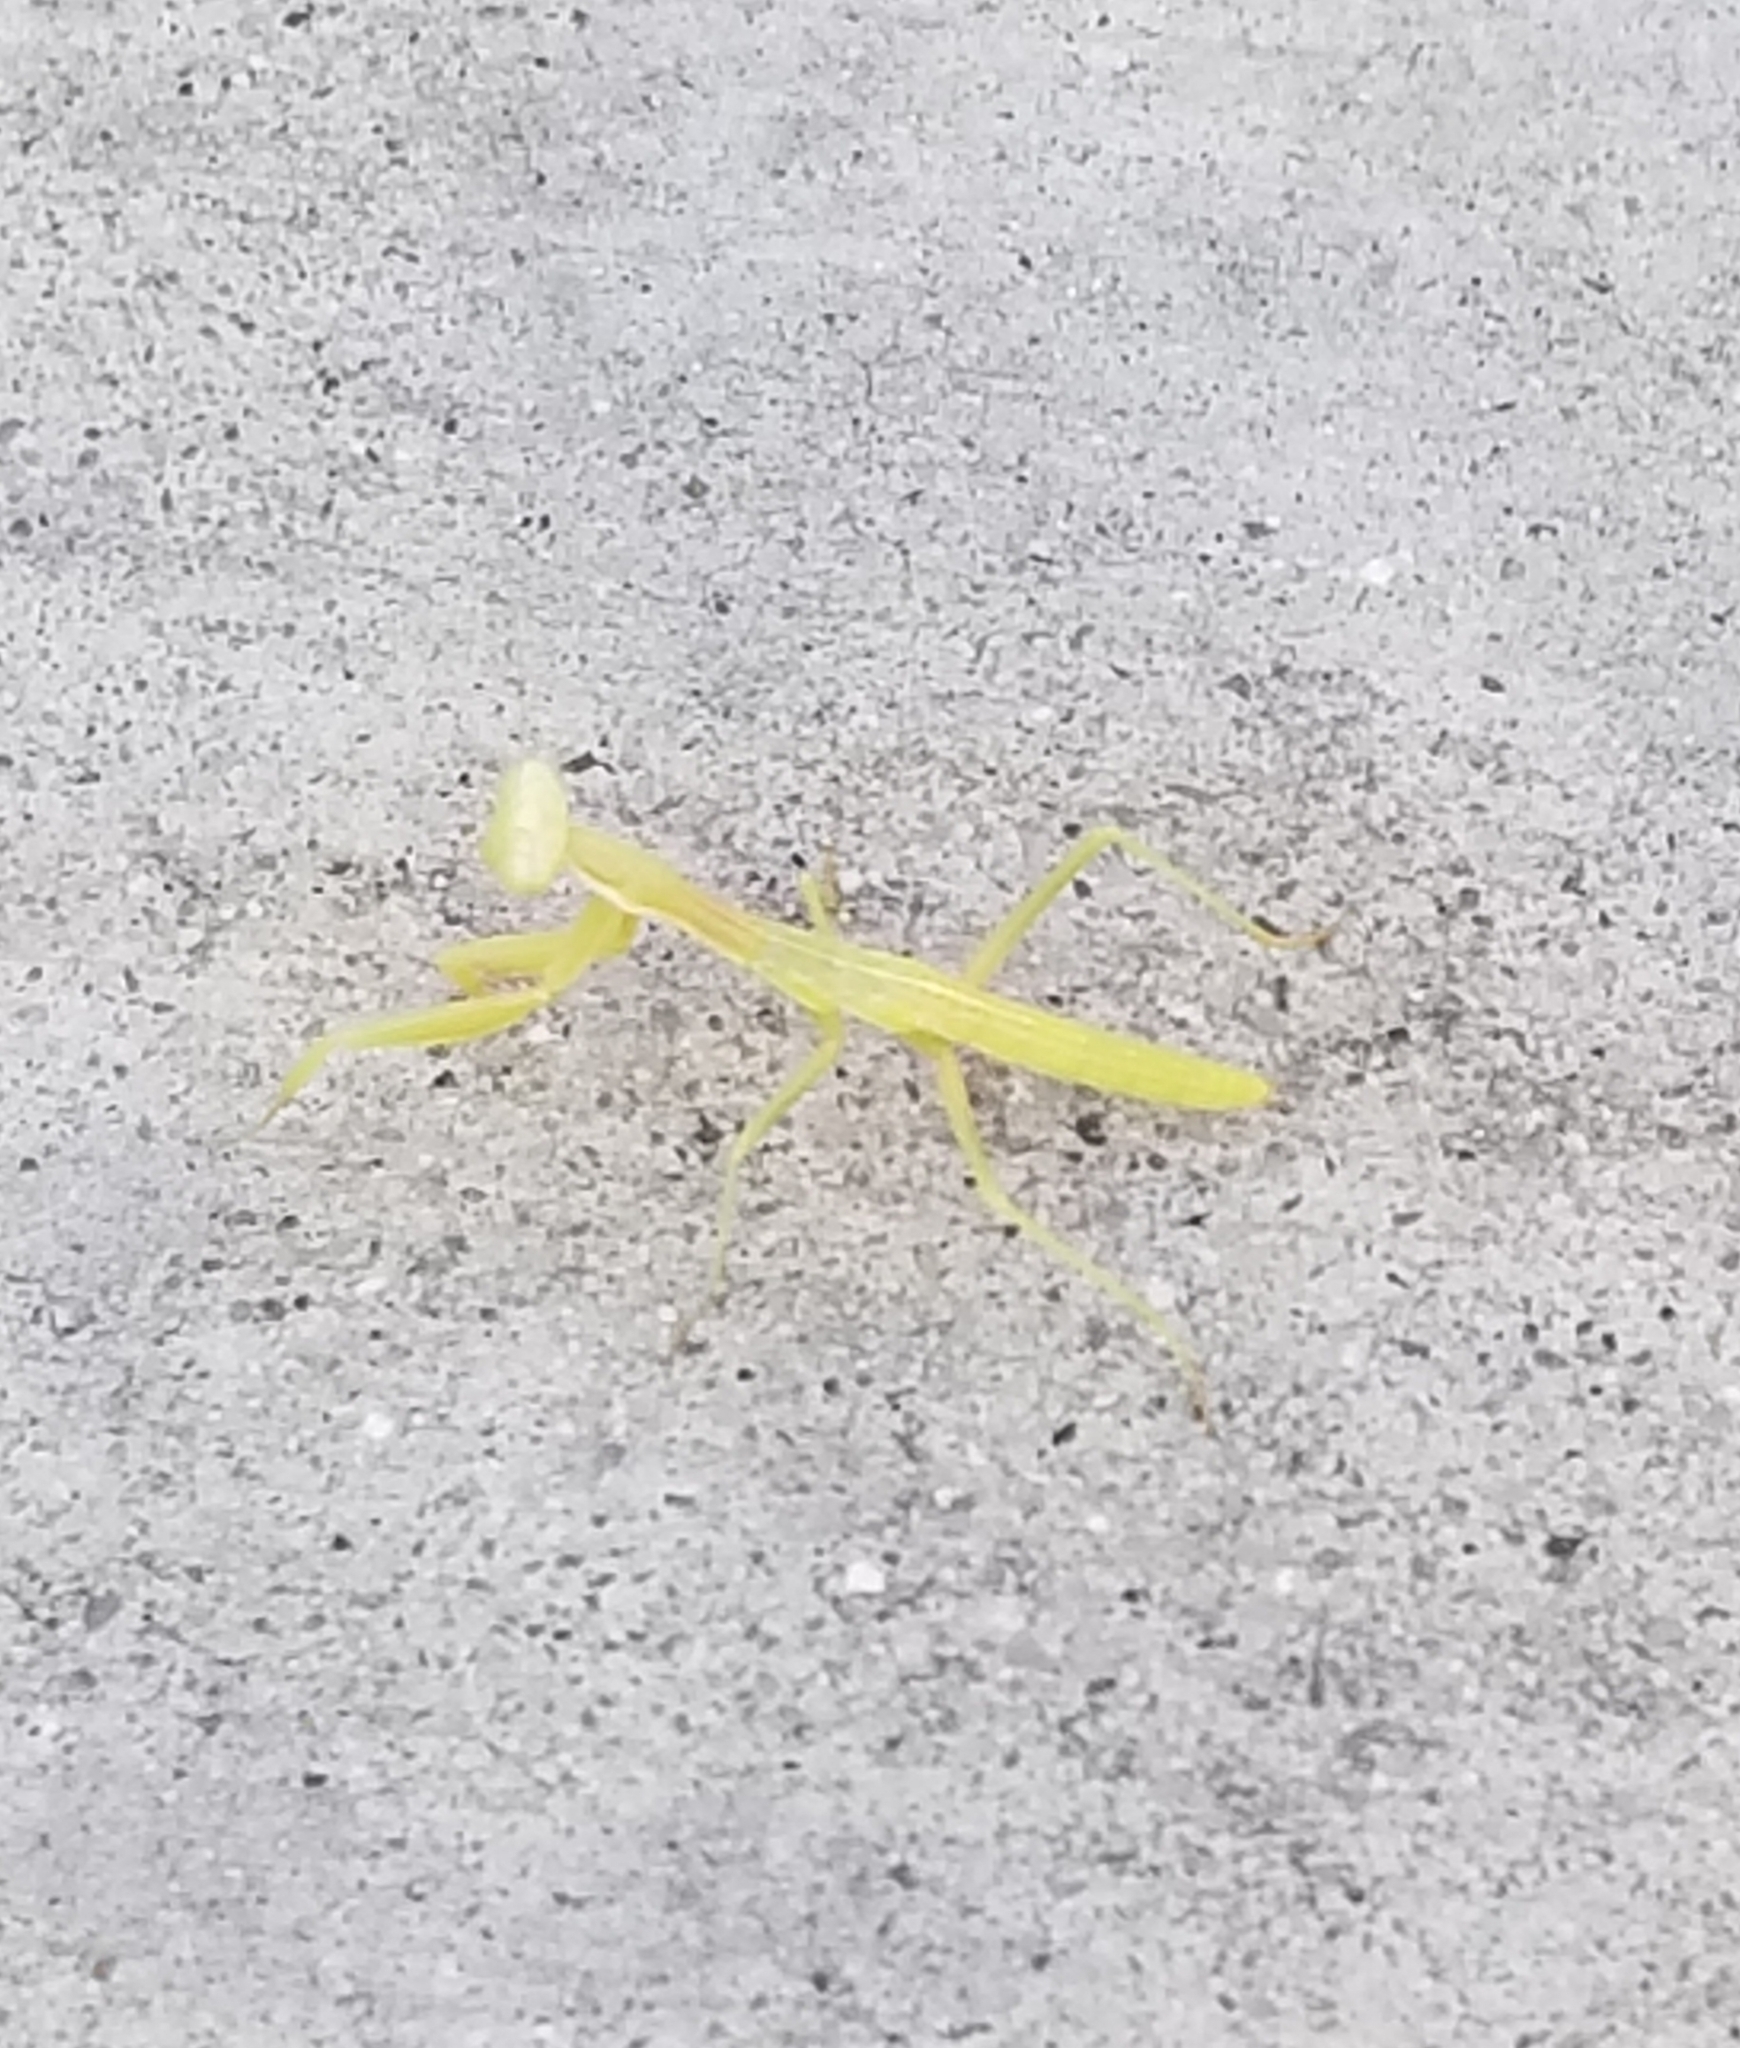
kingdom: Animalia
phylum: Arthropoda
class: Insecta
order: Mantodea
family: Eremiaphilidae
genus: Iris
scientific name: Iris oratoria
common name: Mediterranean mantis
